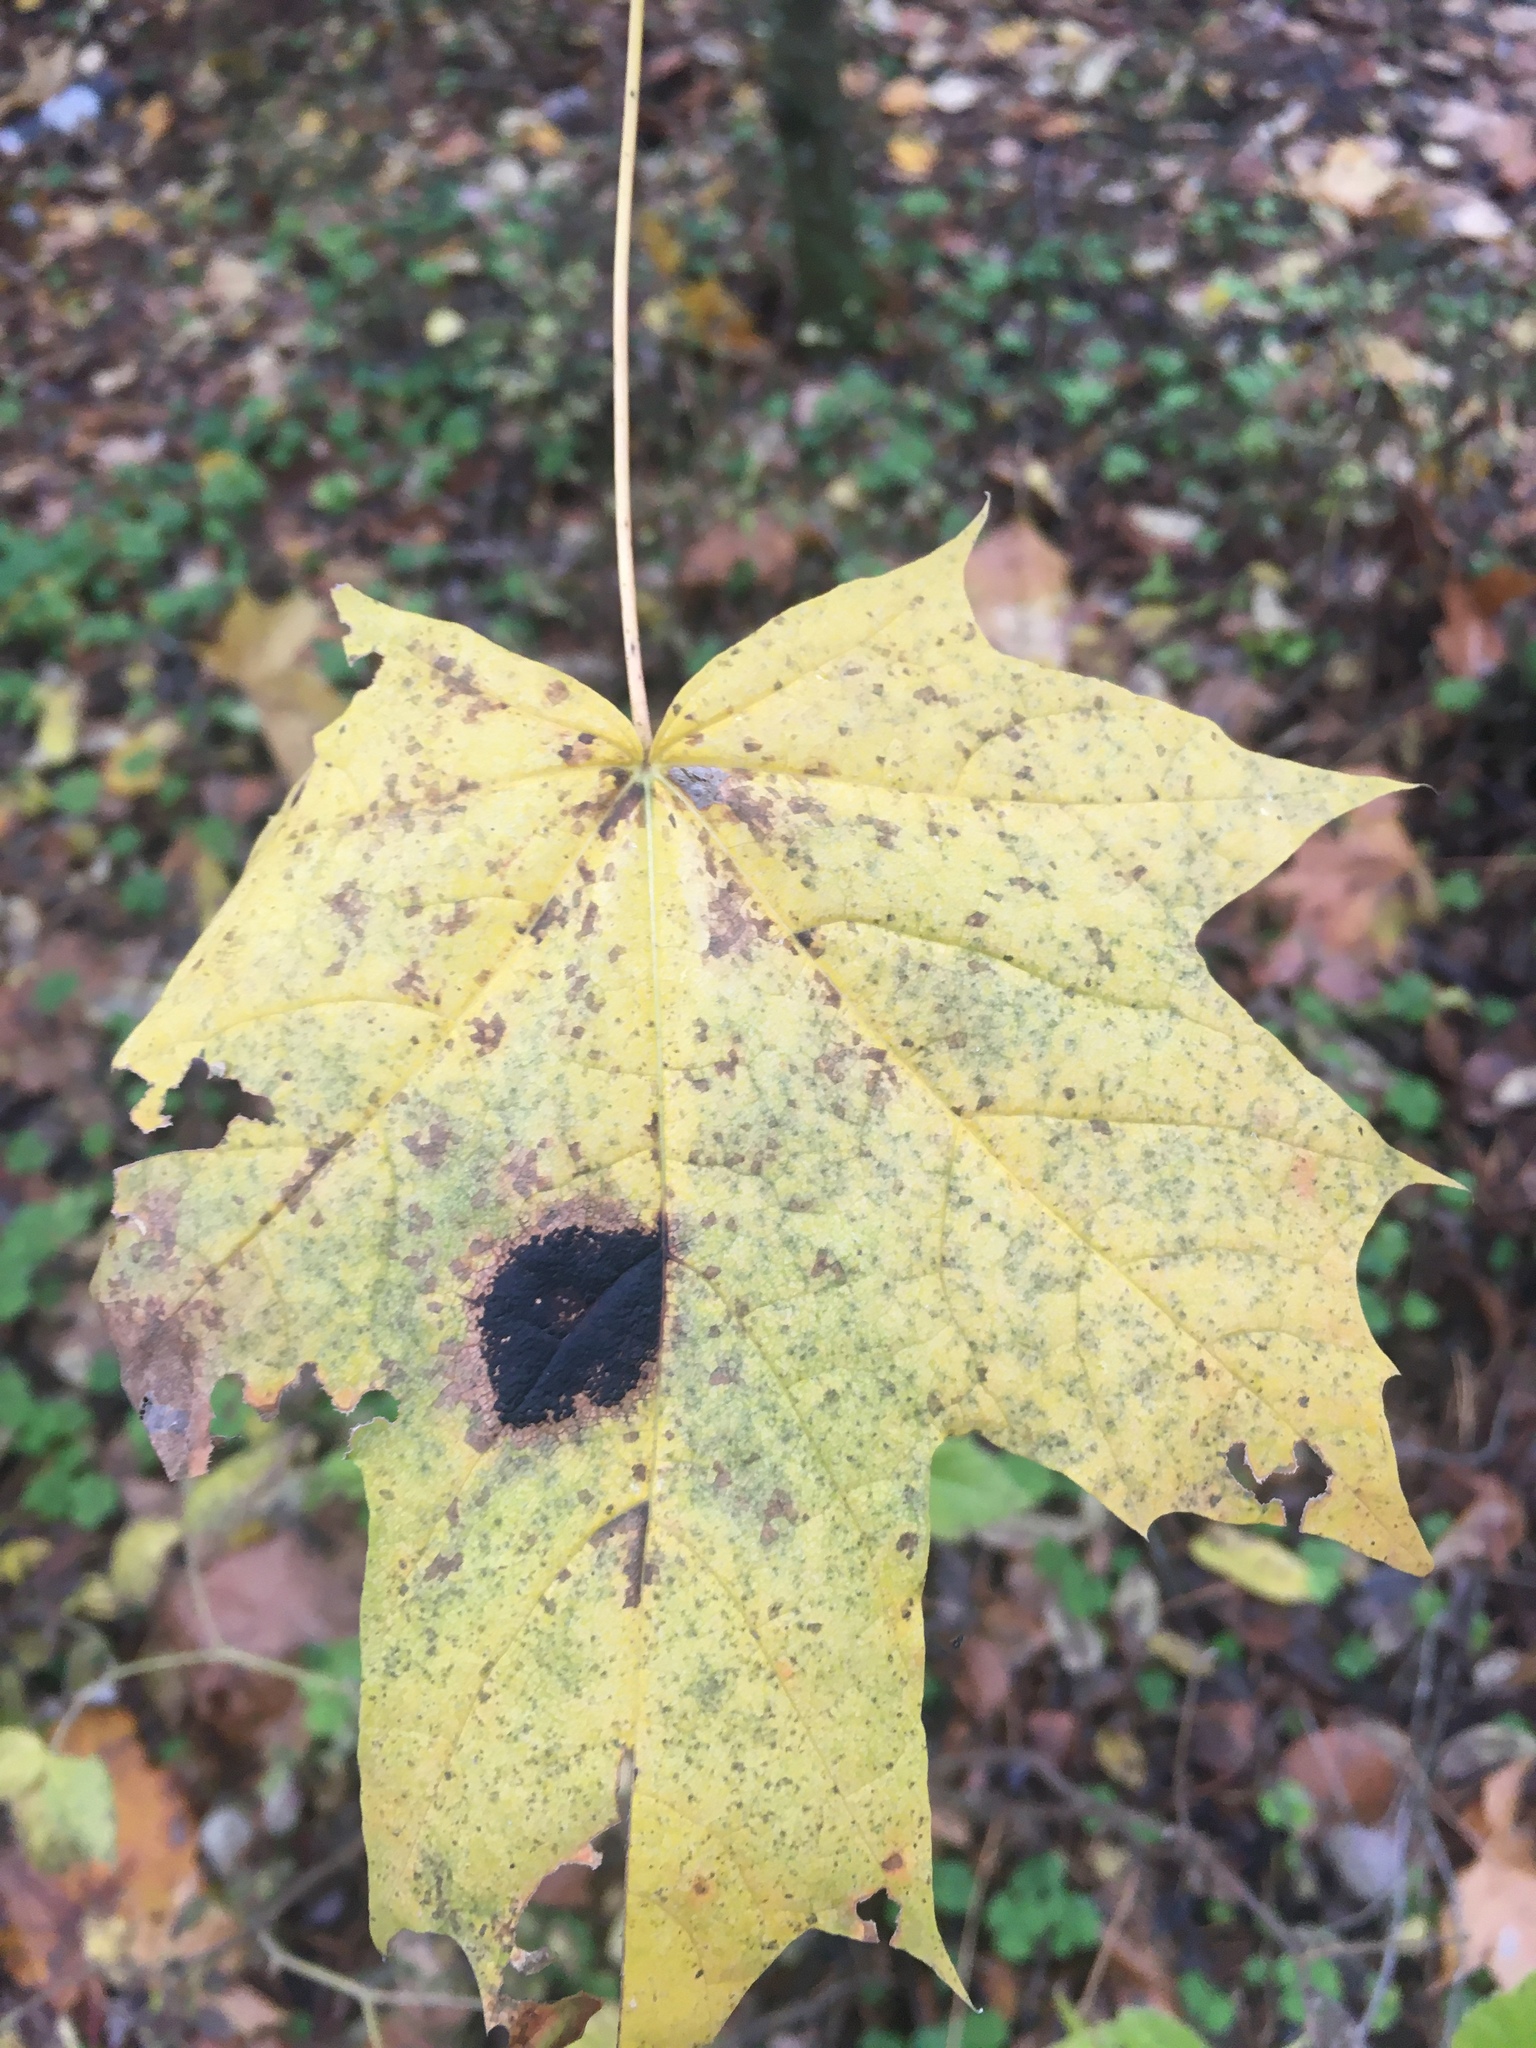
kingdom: Fungi
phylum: Ascomycota
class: Leotiomycetes
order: Rhytismatales
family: Rhytismataceae
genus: Rhytisma
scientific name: Rhytisma acerinum
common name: European tar spot
